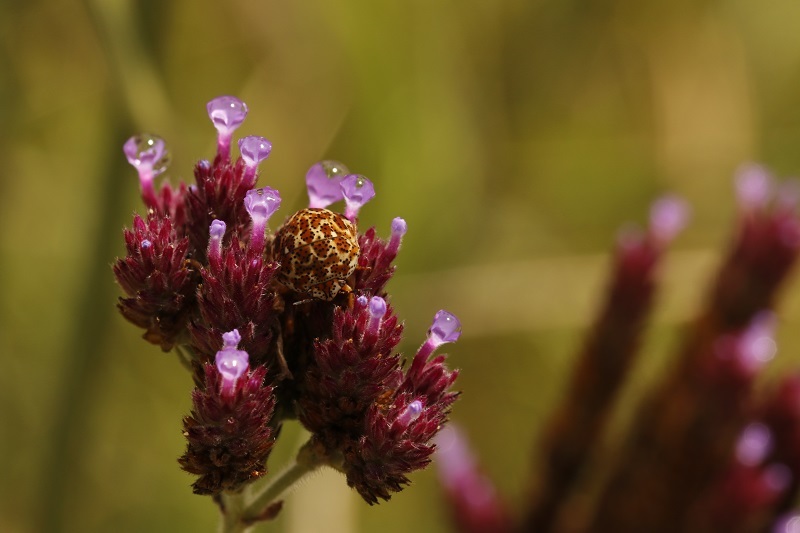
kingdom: Animalia
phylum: Arthropoda
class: Insecta
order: Hemiptera
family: Scutelleridae
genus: Sphaerocoris
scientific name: Sphaerocoris
